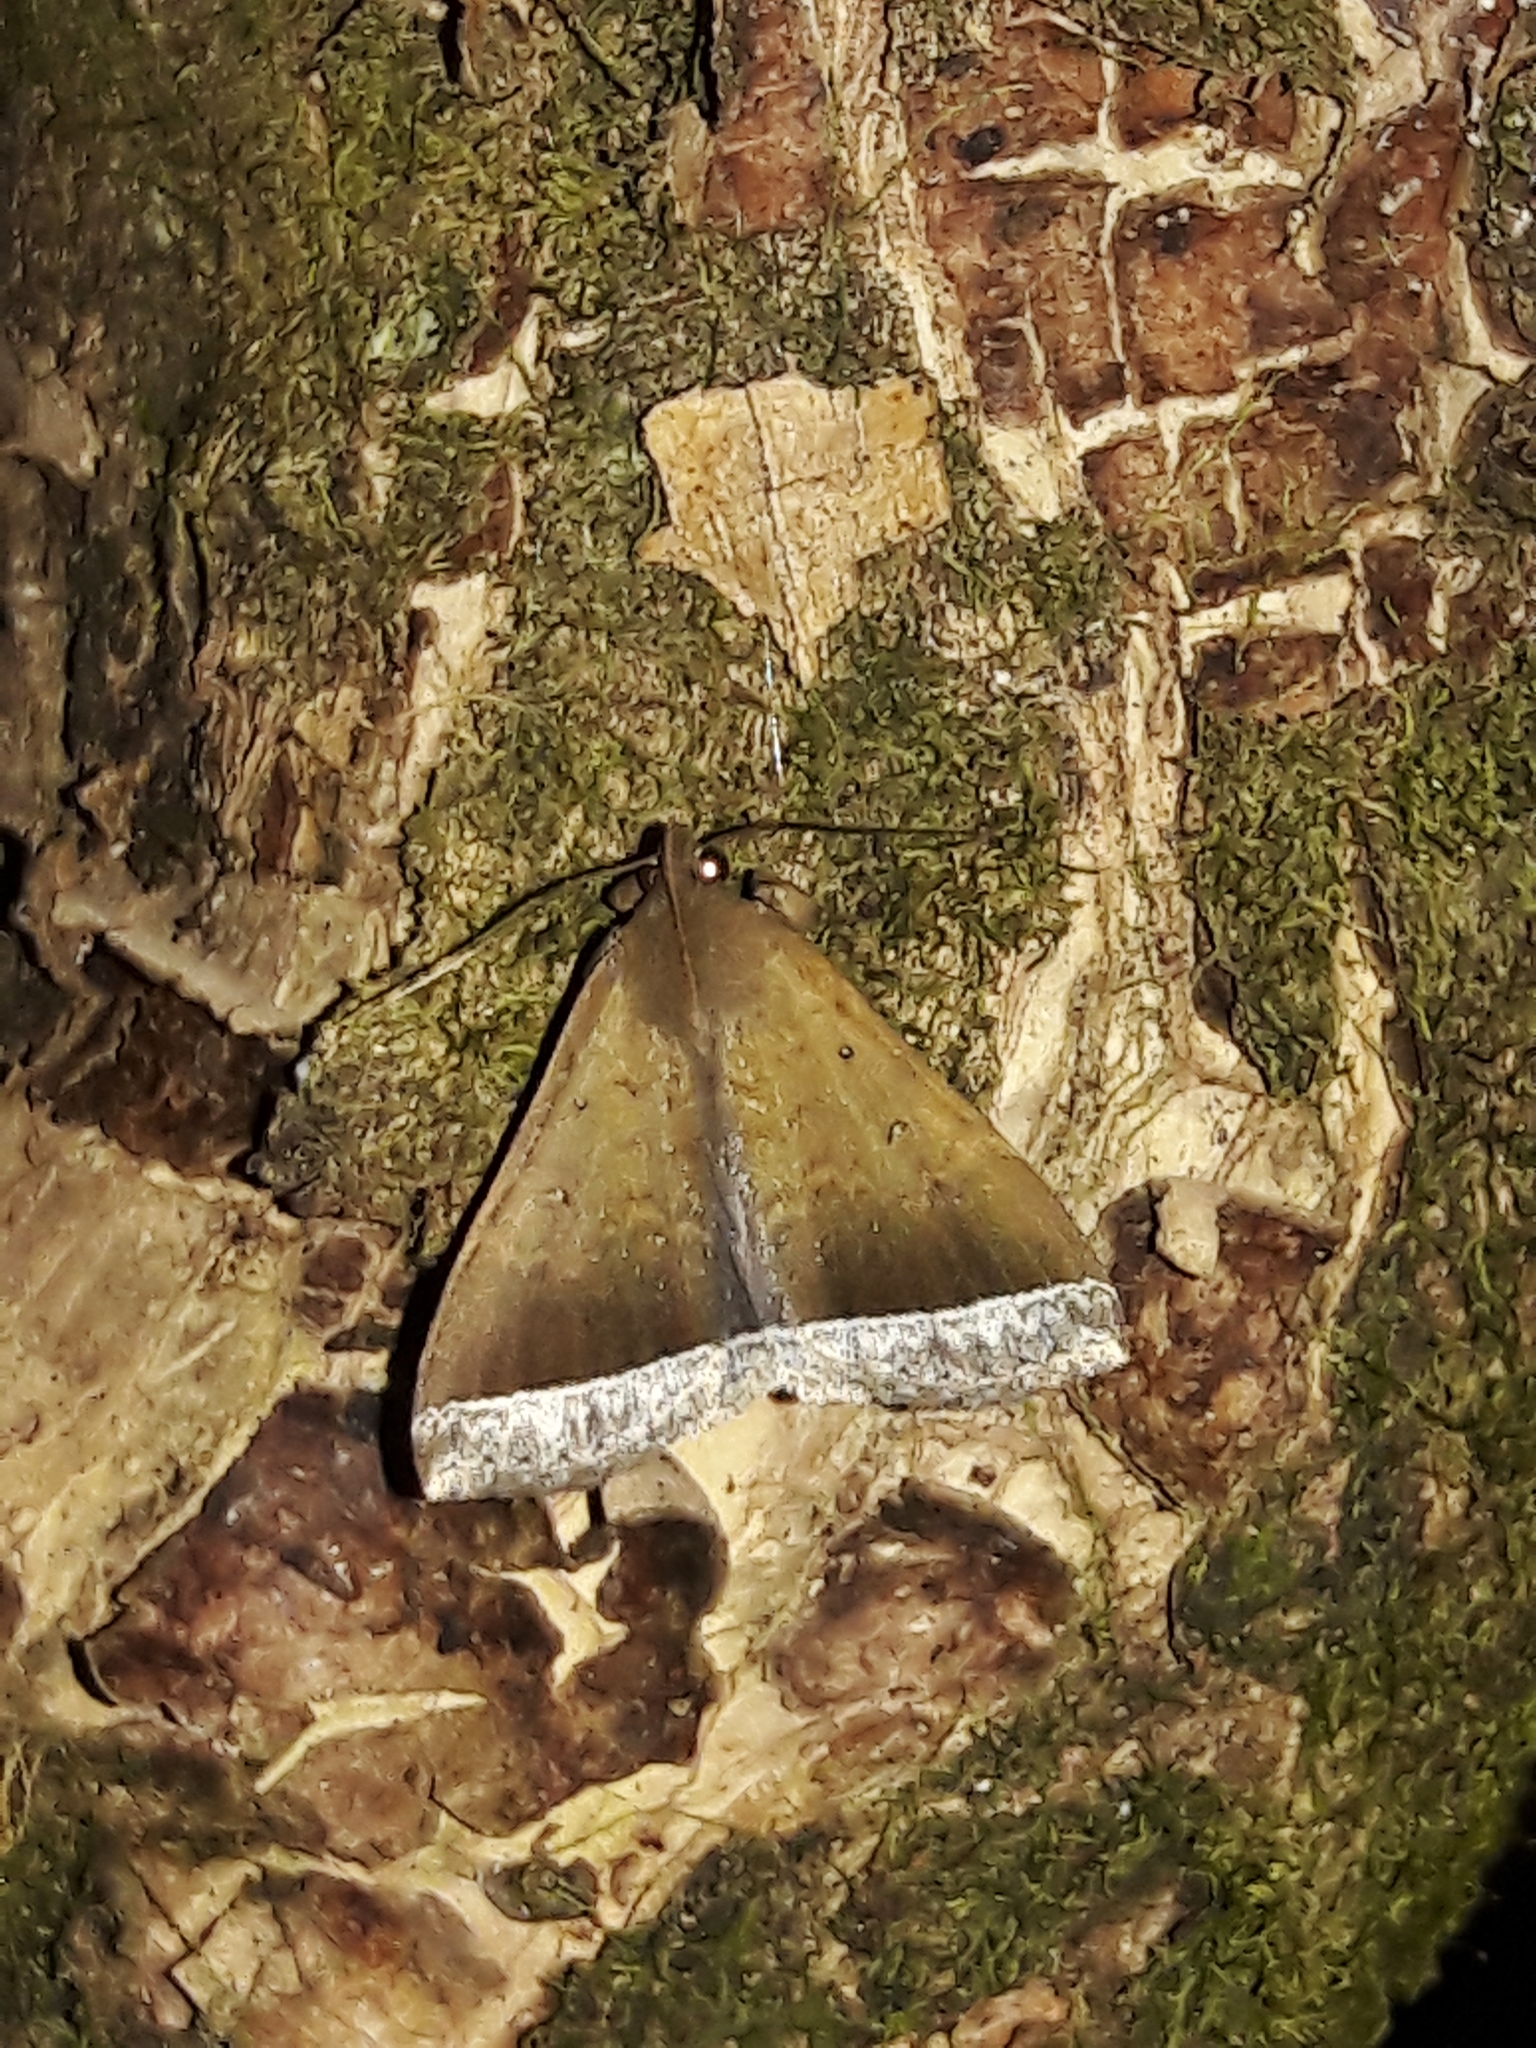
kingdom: Animalia
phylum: Arthropoda
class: Insecta
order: Lepidoptera
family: Erebidae
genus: Mamerthes
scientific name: Mamerthes orionalis
